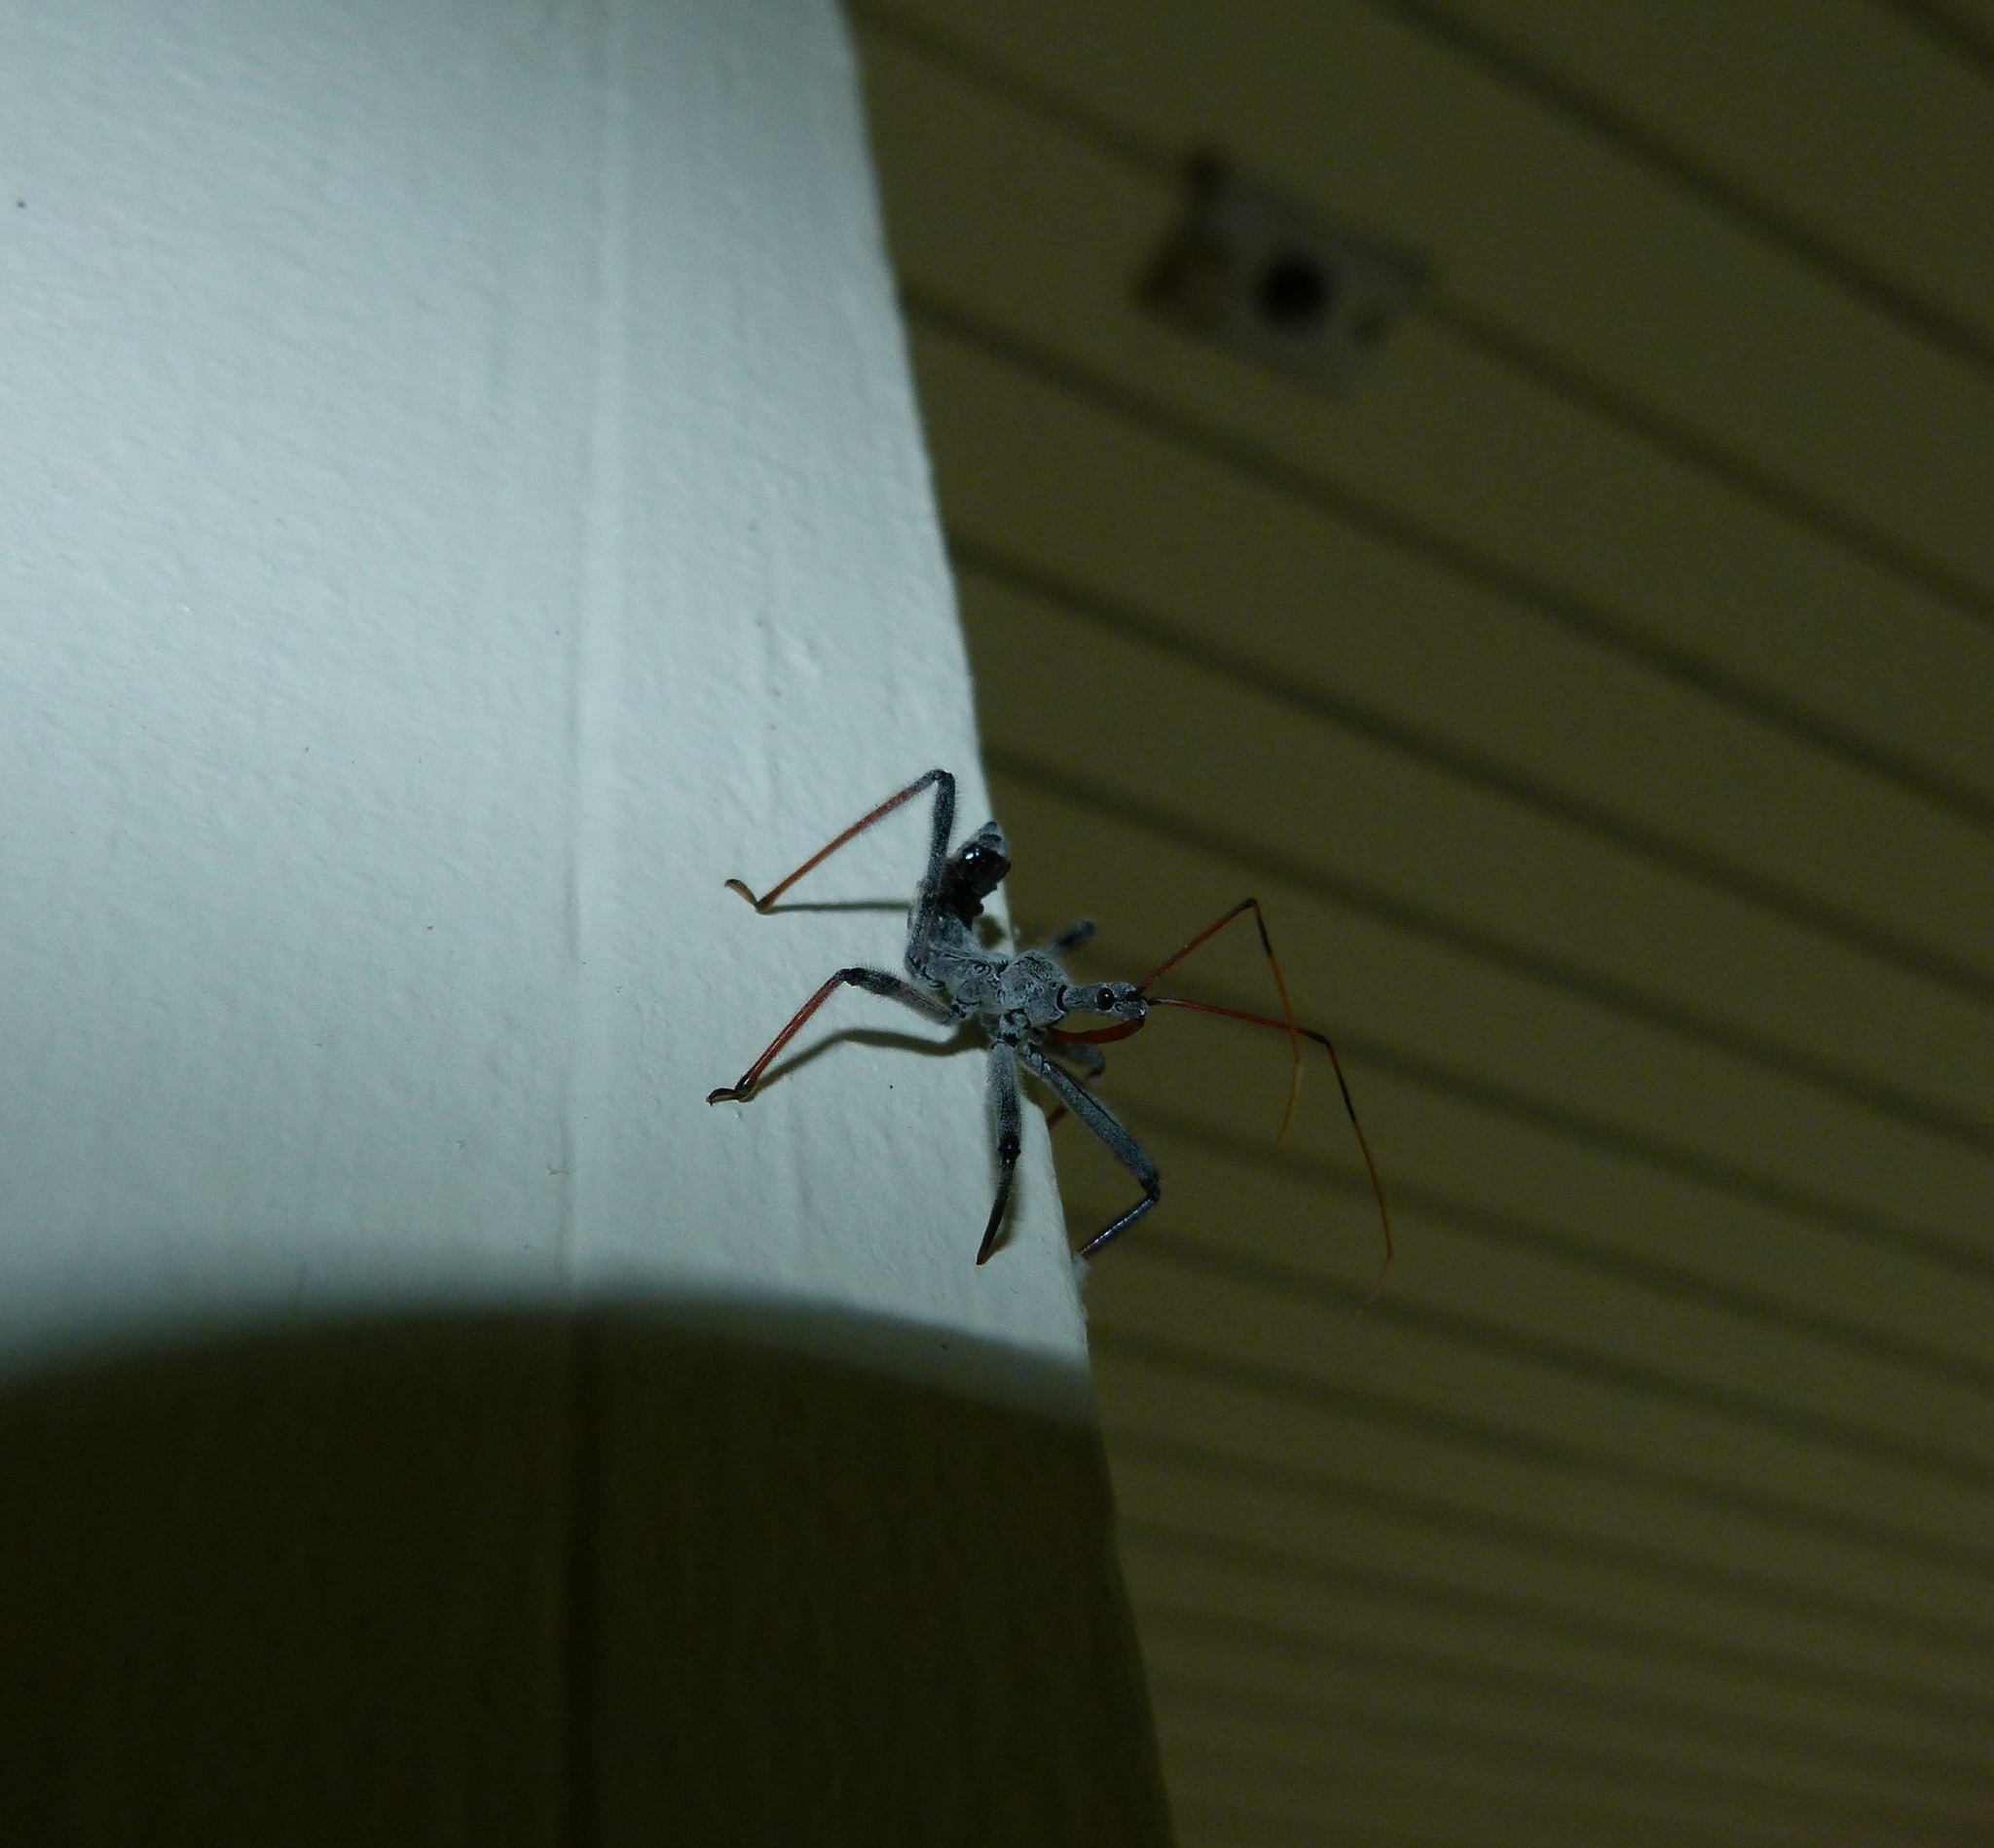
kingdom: Animalia
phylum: Arthropoda
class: Insecta
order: Hemiptera
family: Reduviidae
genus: Arilus
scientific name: Arilus cristatus
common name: North american wheel bug
